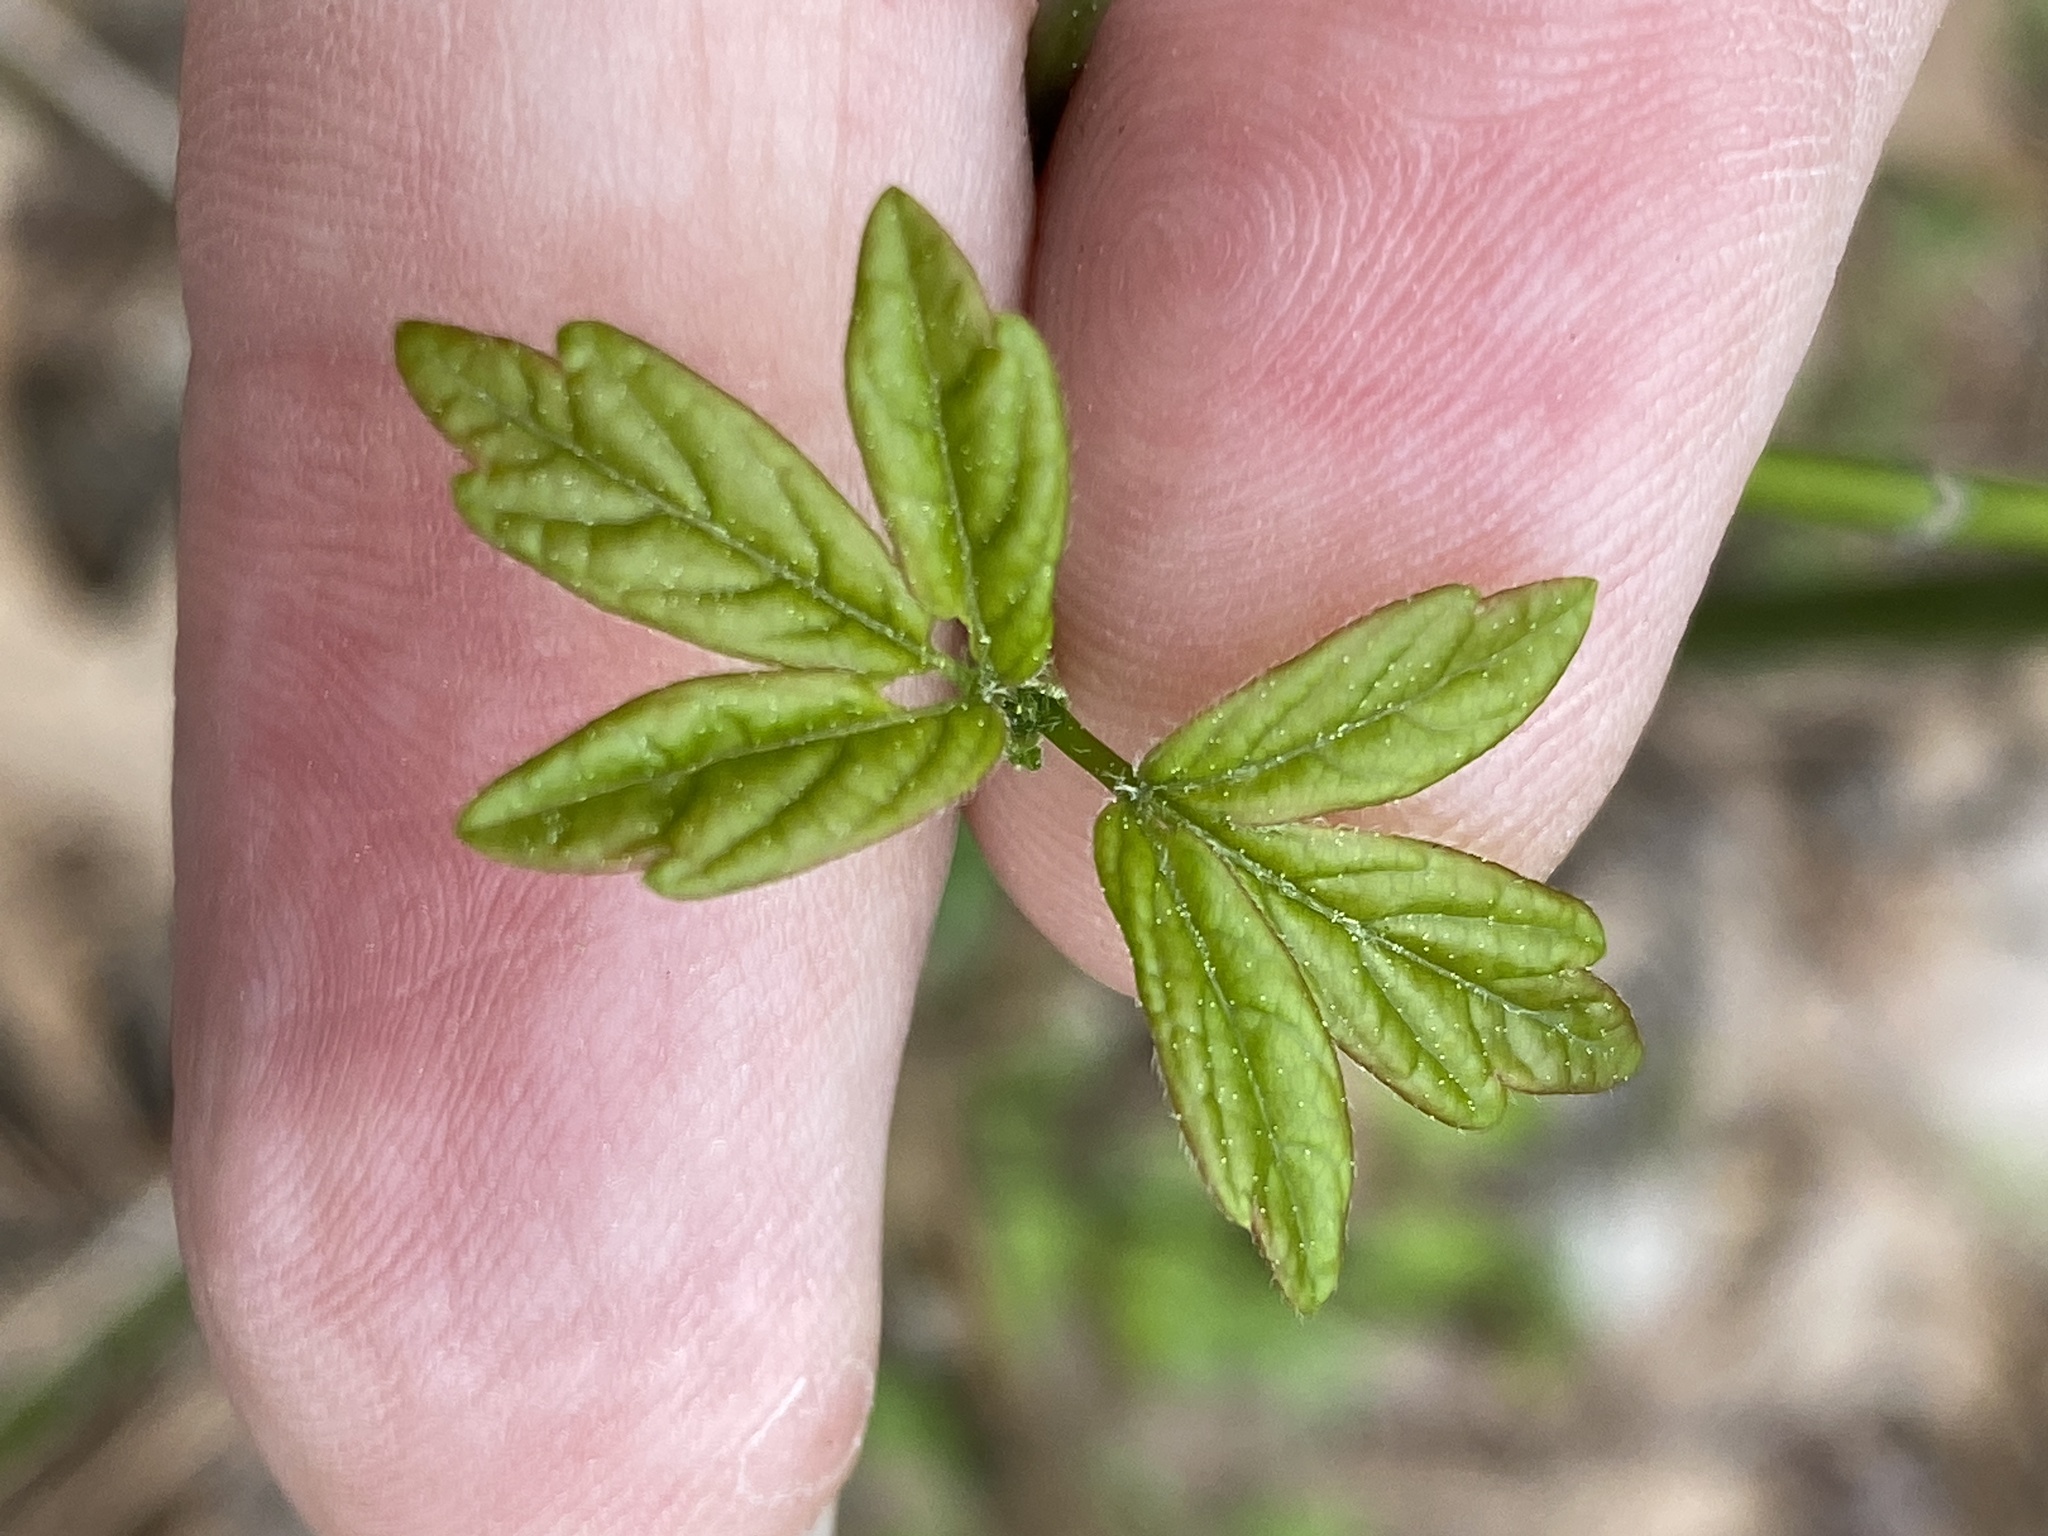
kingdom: Plantae
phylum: Tracheophyta
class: Magnoliopsida
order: Sapindales
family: Sapindaceae
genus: Acer
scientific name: Acer negundo
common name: Ashleaf maple
